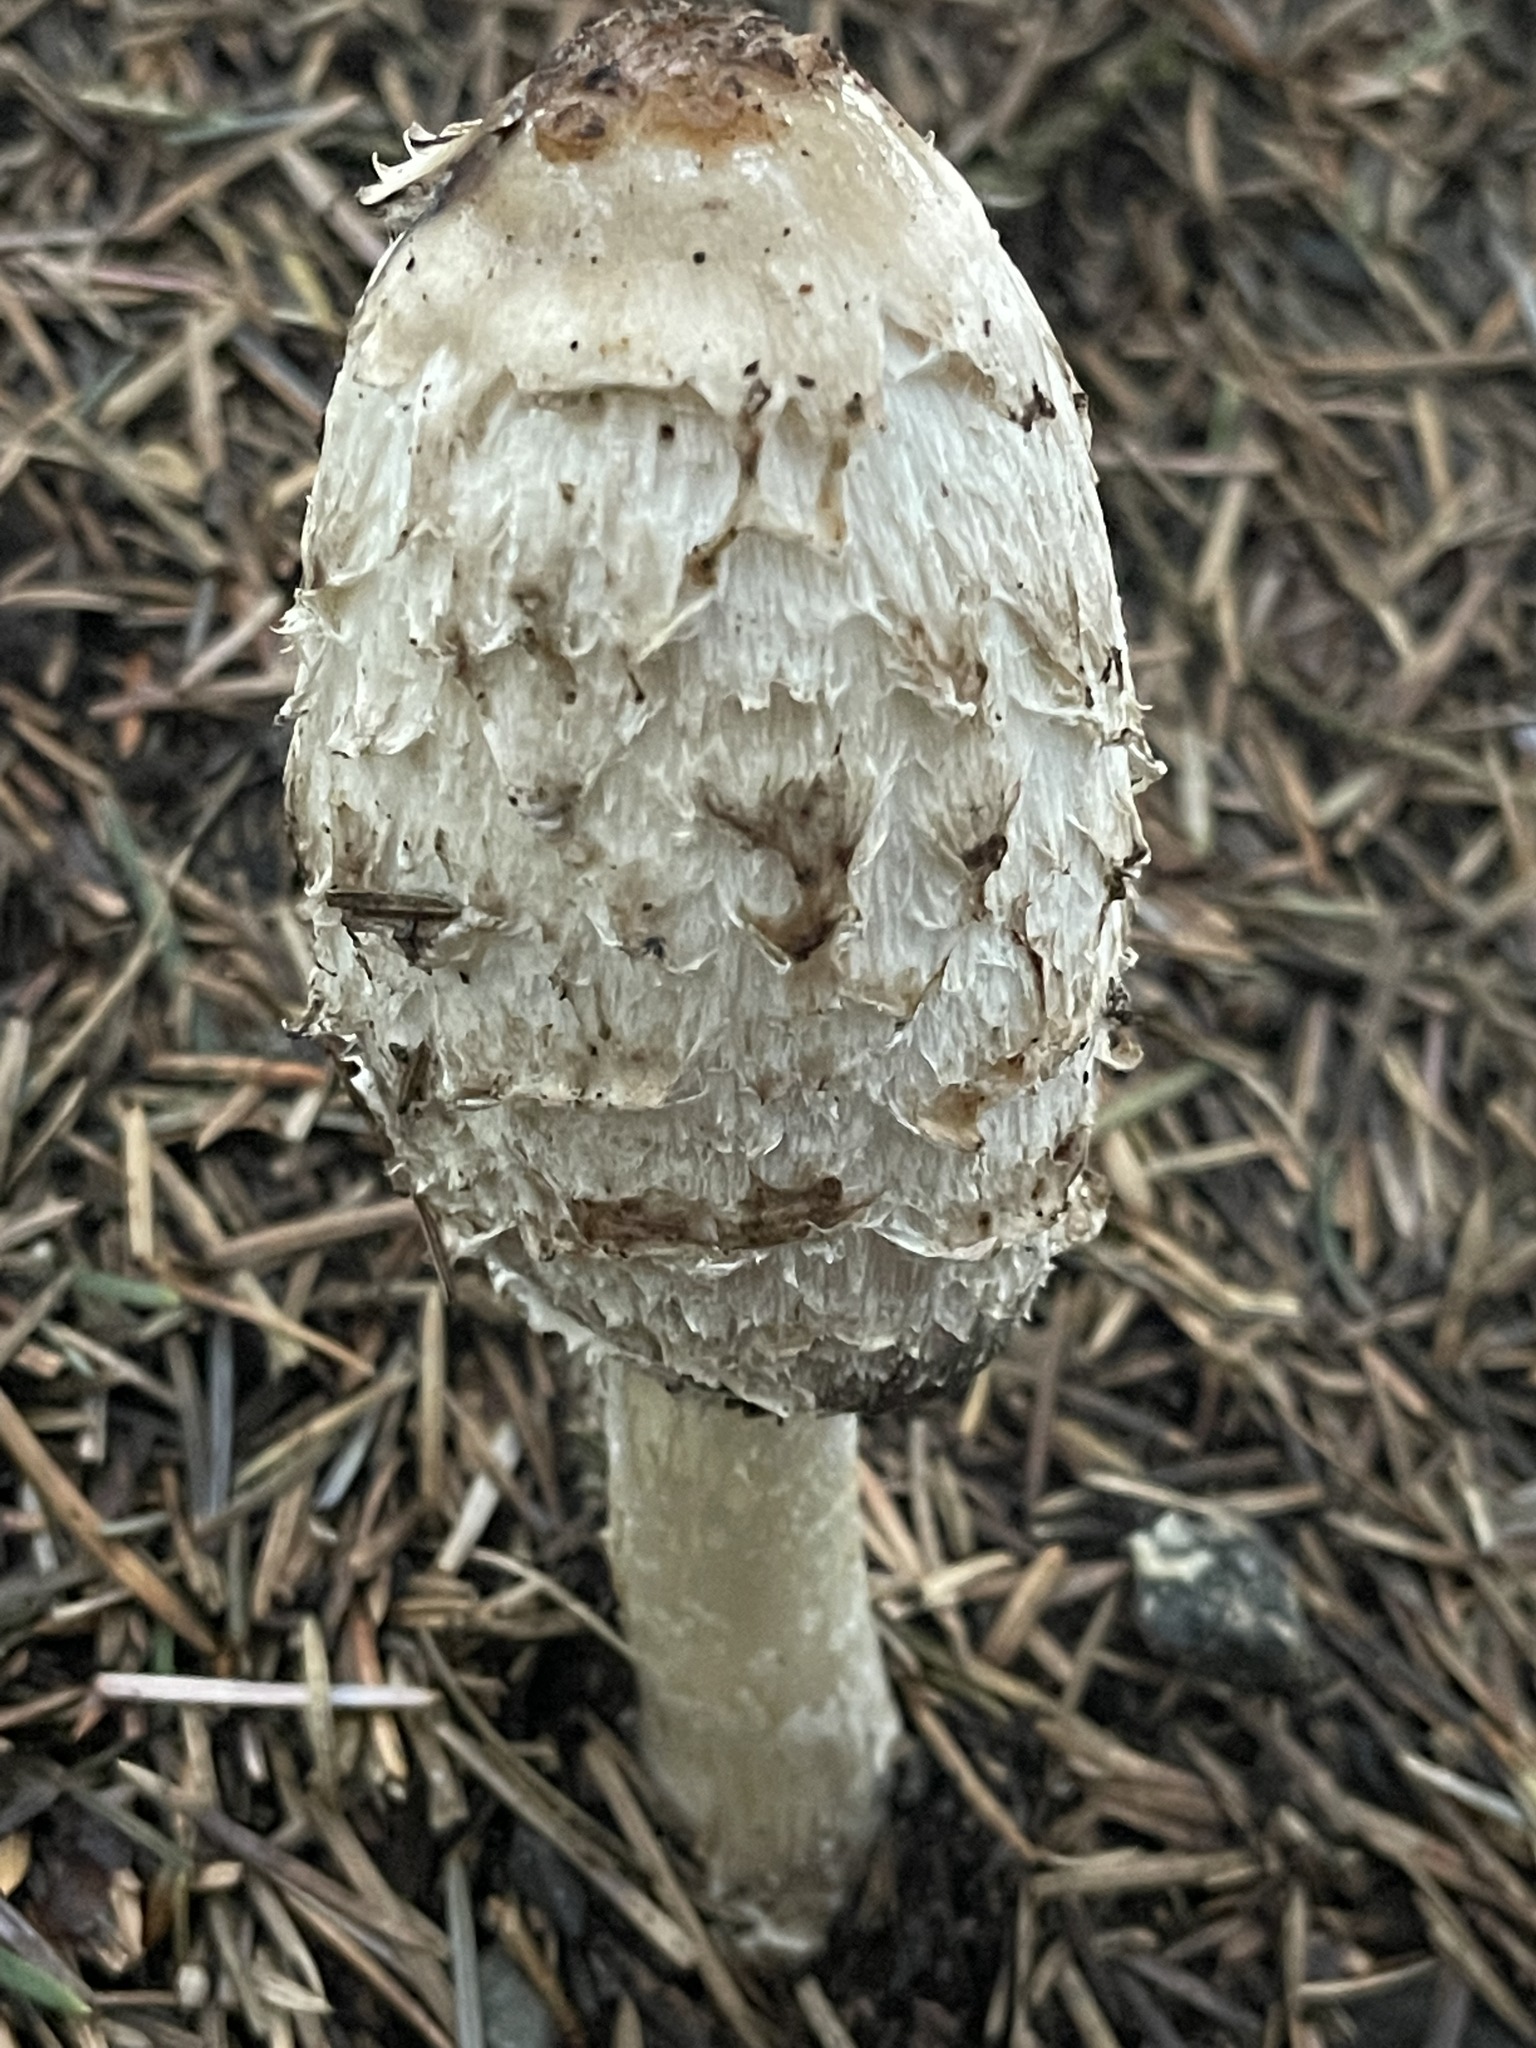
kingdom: Fungi
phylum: Basidiomycota
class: Agaricomycetes
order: Agaricales
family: Agaricaceae
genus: Coprinus
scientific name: Coprinus comatus
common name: Lawyer's wig
